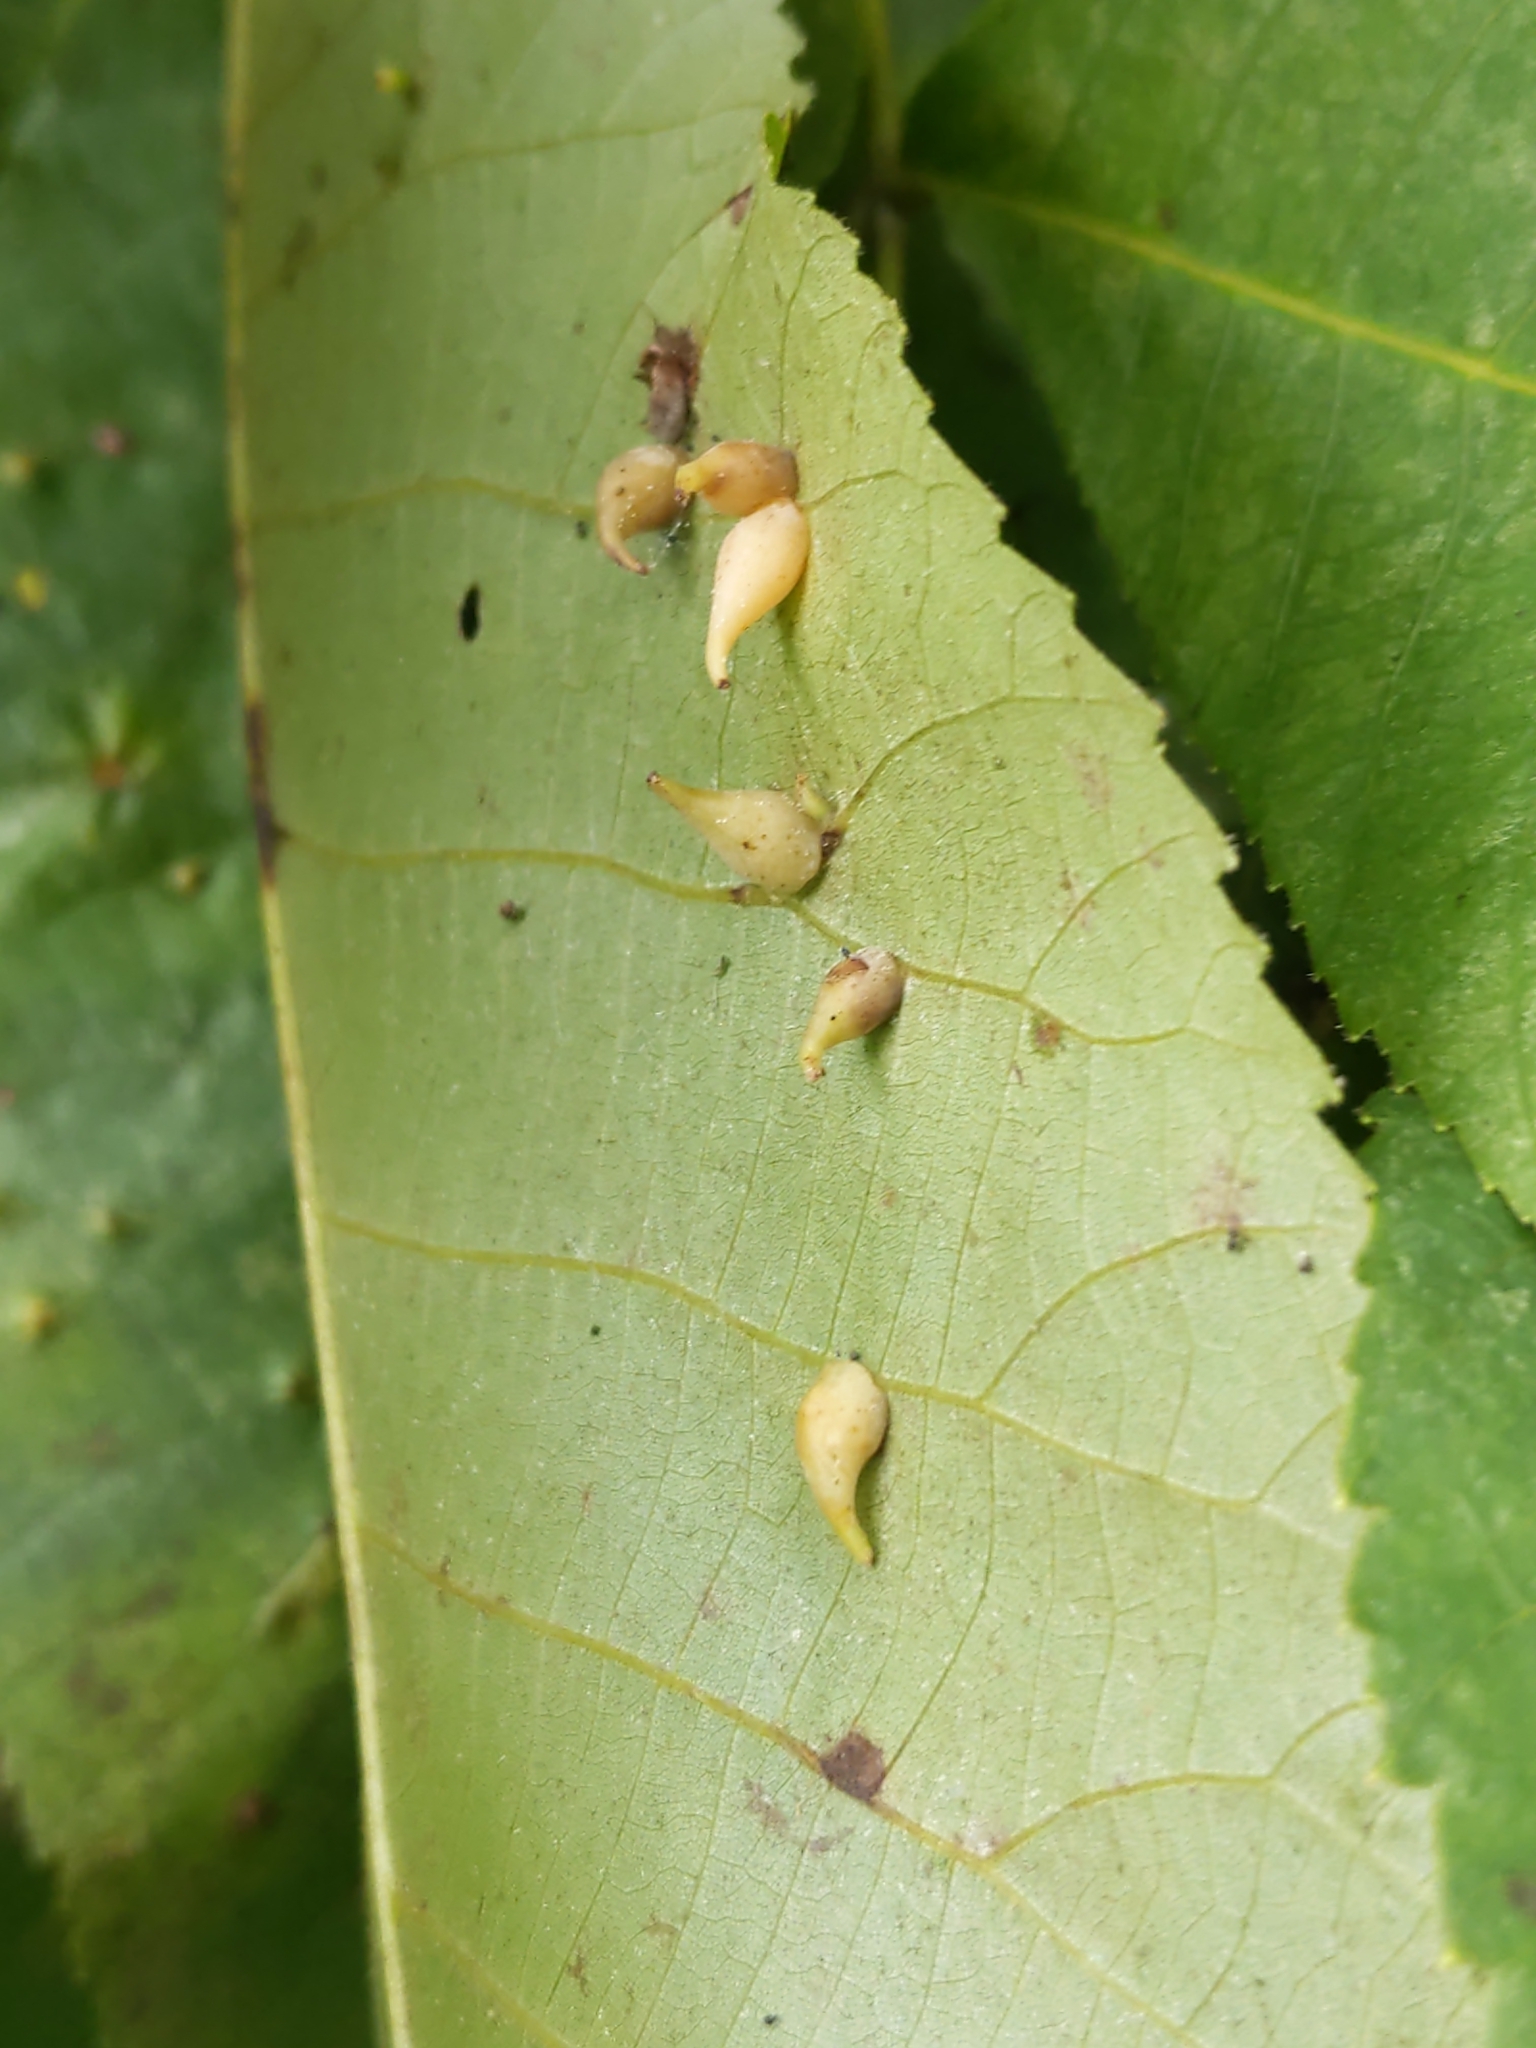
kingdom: Animalia
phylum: Arthropoda
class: Insecta
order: Diptera
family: Cecidomyiidae
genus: Caryomyia
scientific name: Caryomyia caryaecola
